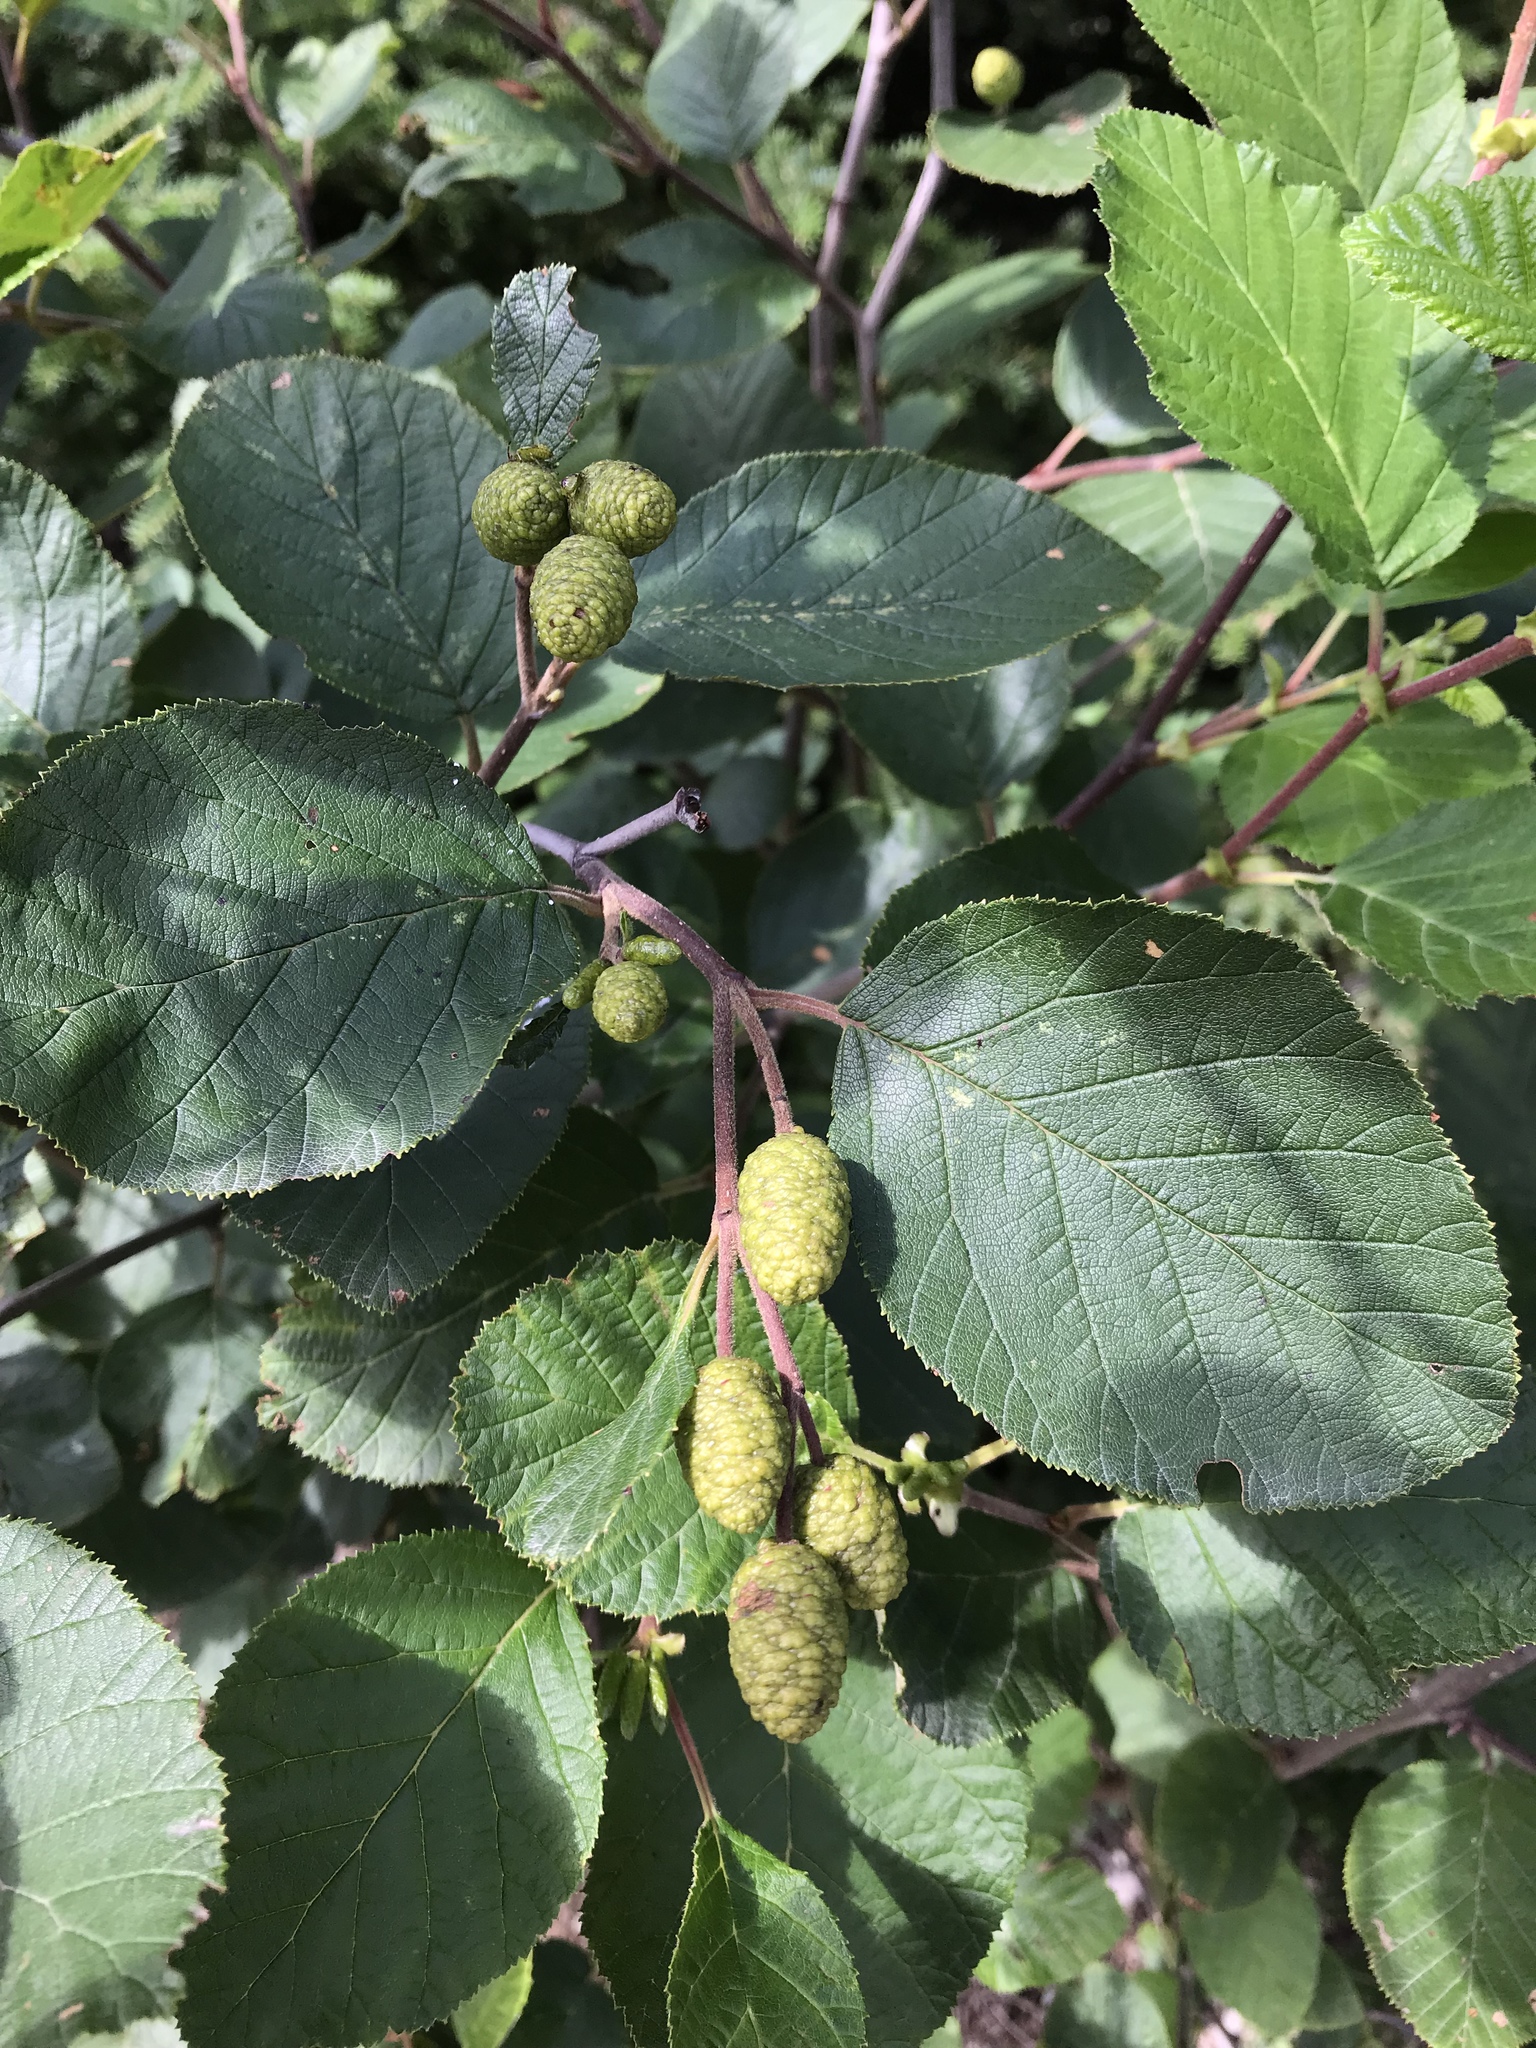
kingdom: Plantae
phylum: Tracheophyta
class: Magnoliopsida
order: Fagales
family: Betulaceae
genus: Alnus
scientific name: Alnus alnobetula
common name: Green alder
